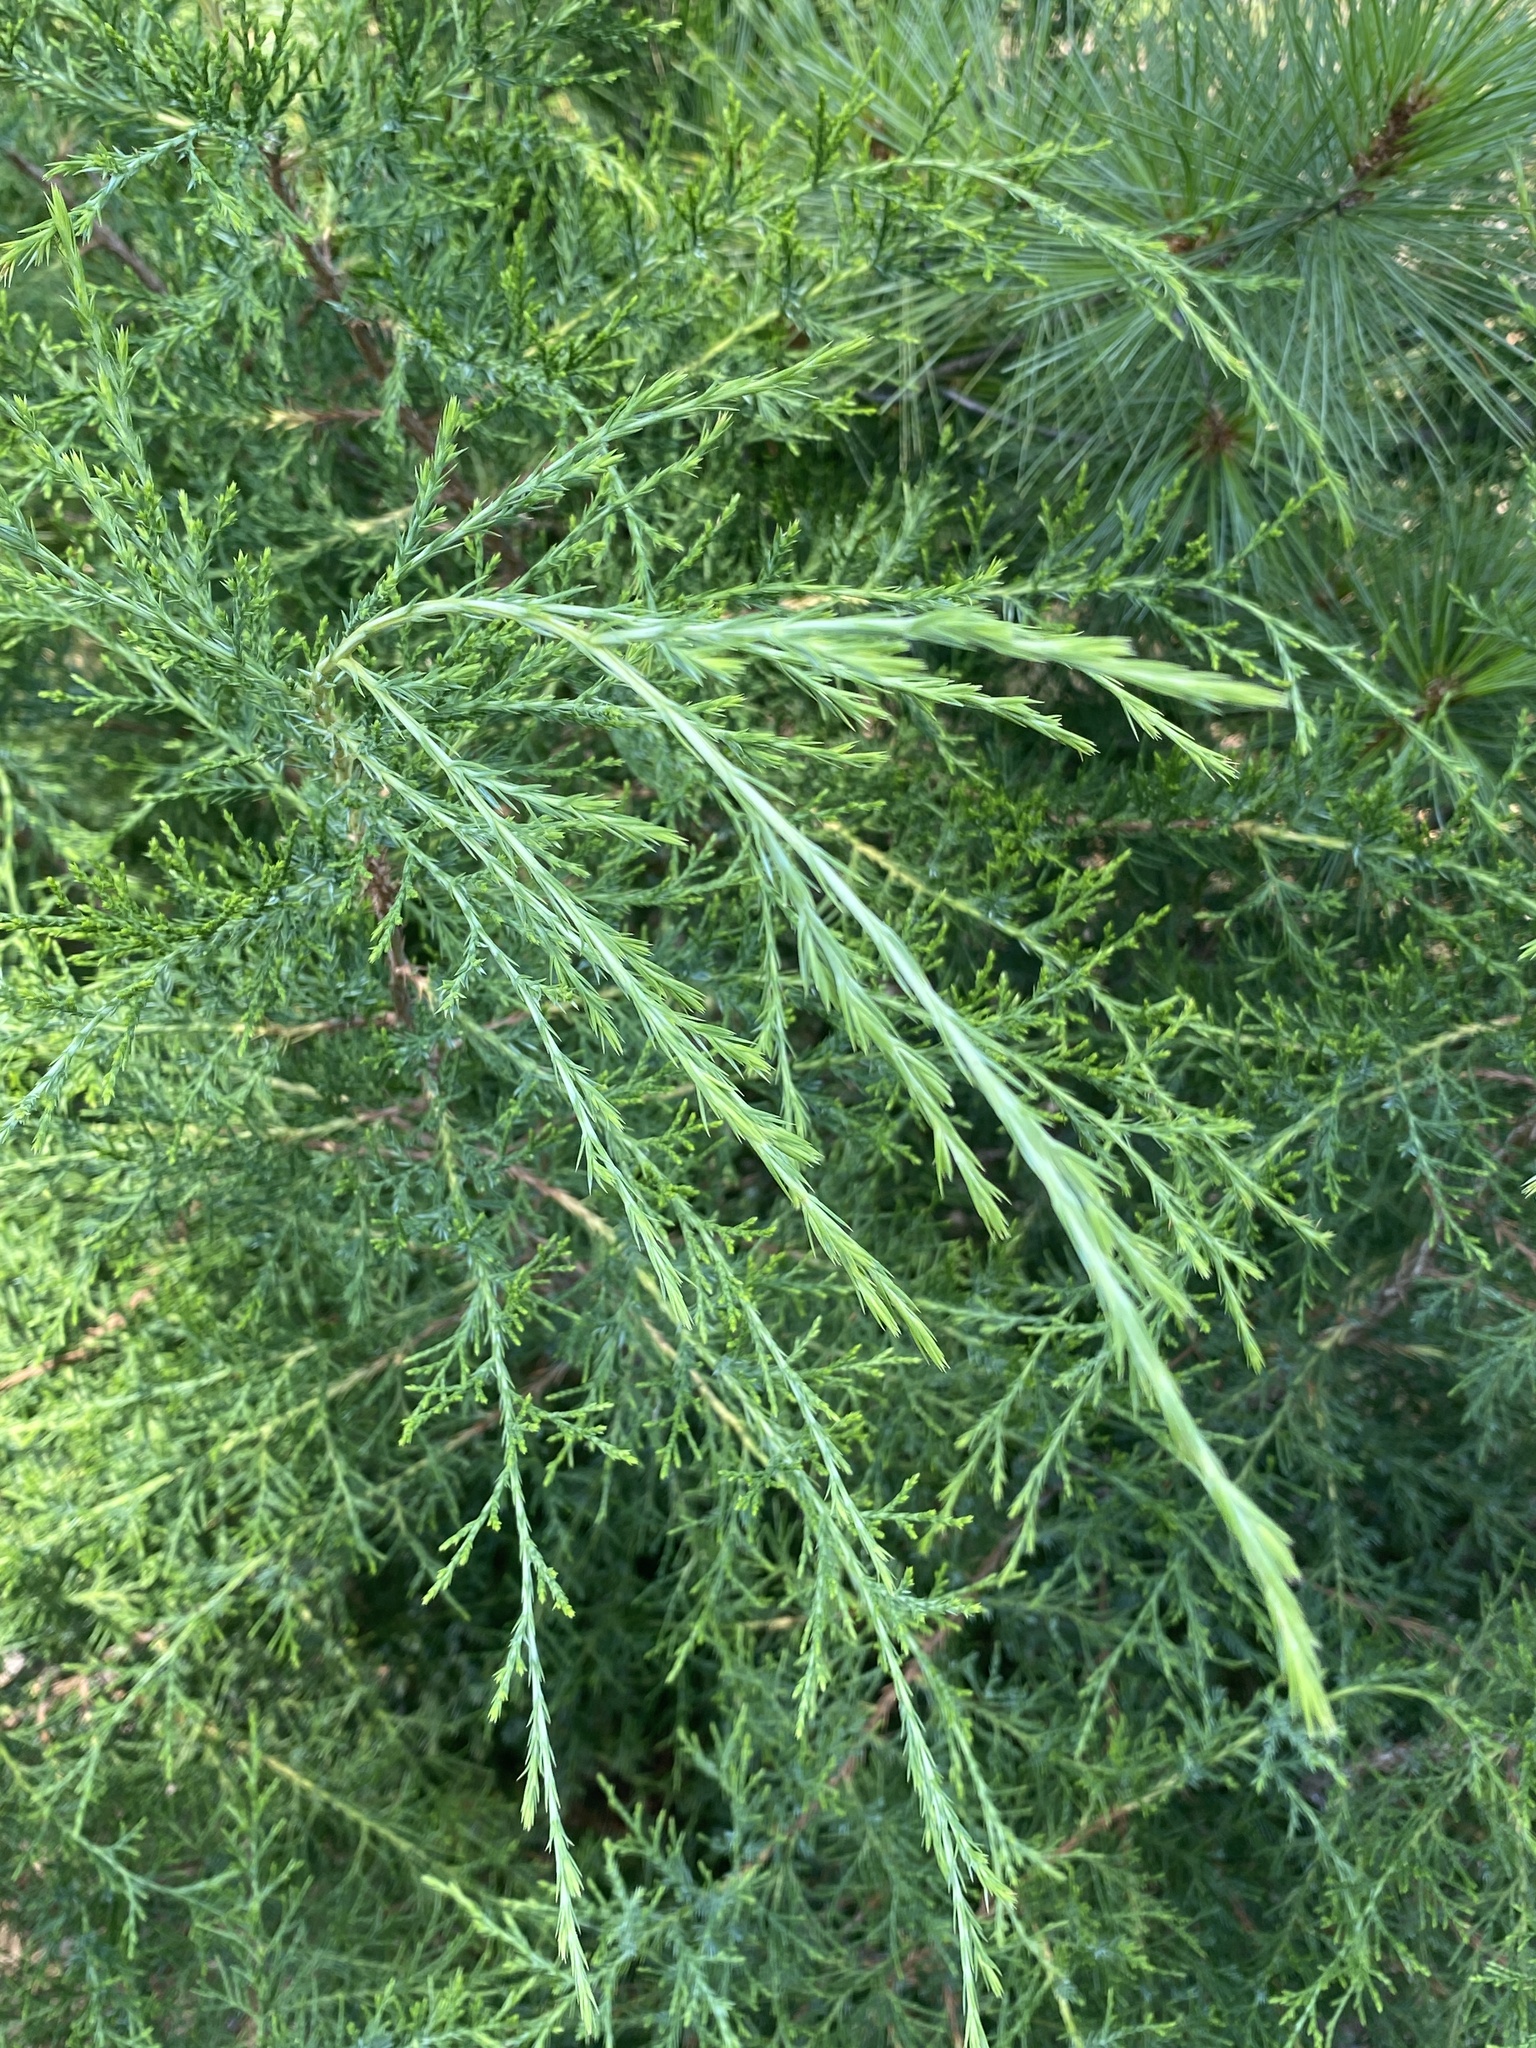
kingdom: Plantae
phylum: Tracheophyta
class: Pinopsida
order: Pinales
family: Cupressaceae
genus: Juniperus
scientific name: Juniperus virginiana
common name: Red juniper
